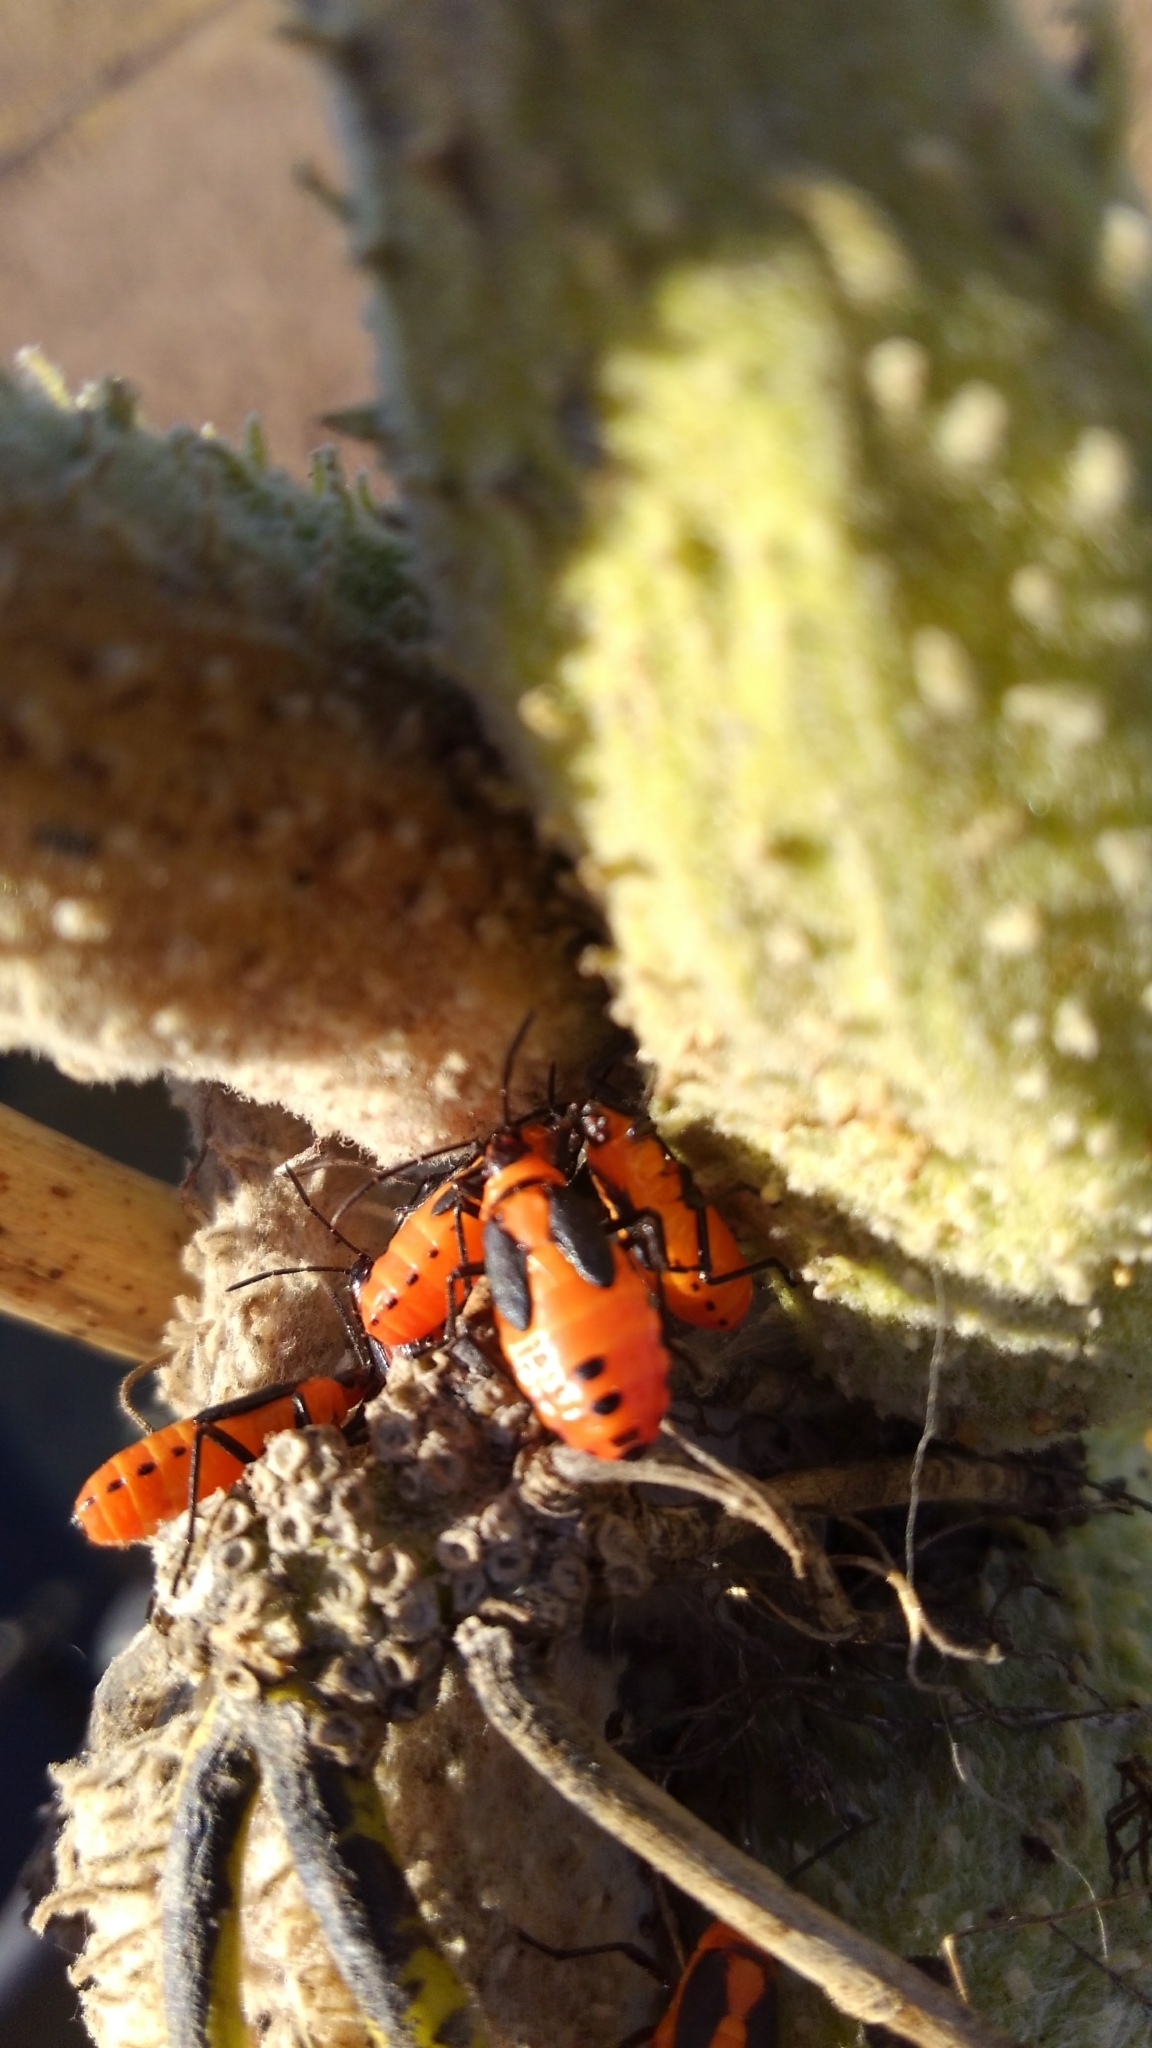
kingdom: Animalia
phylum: Arthropoda
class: Insecta
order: Hemiptera
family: Lygaeidae
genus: Oncopeltus
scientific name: Oncopeltus fasciatus
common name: Large milkweed bug
